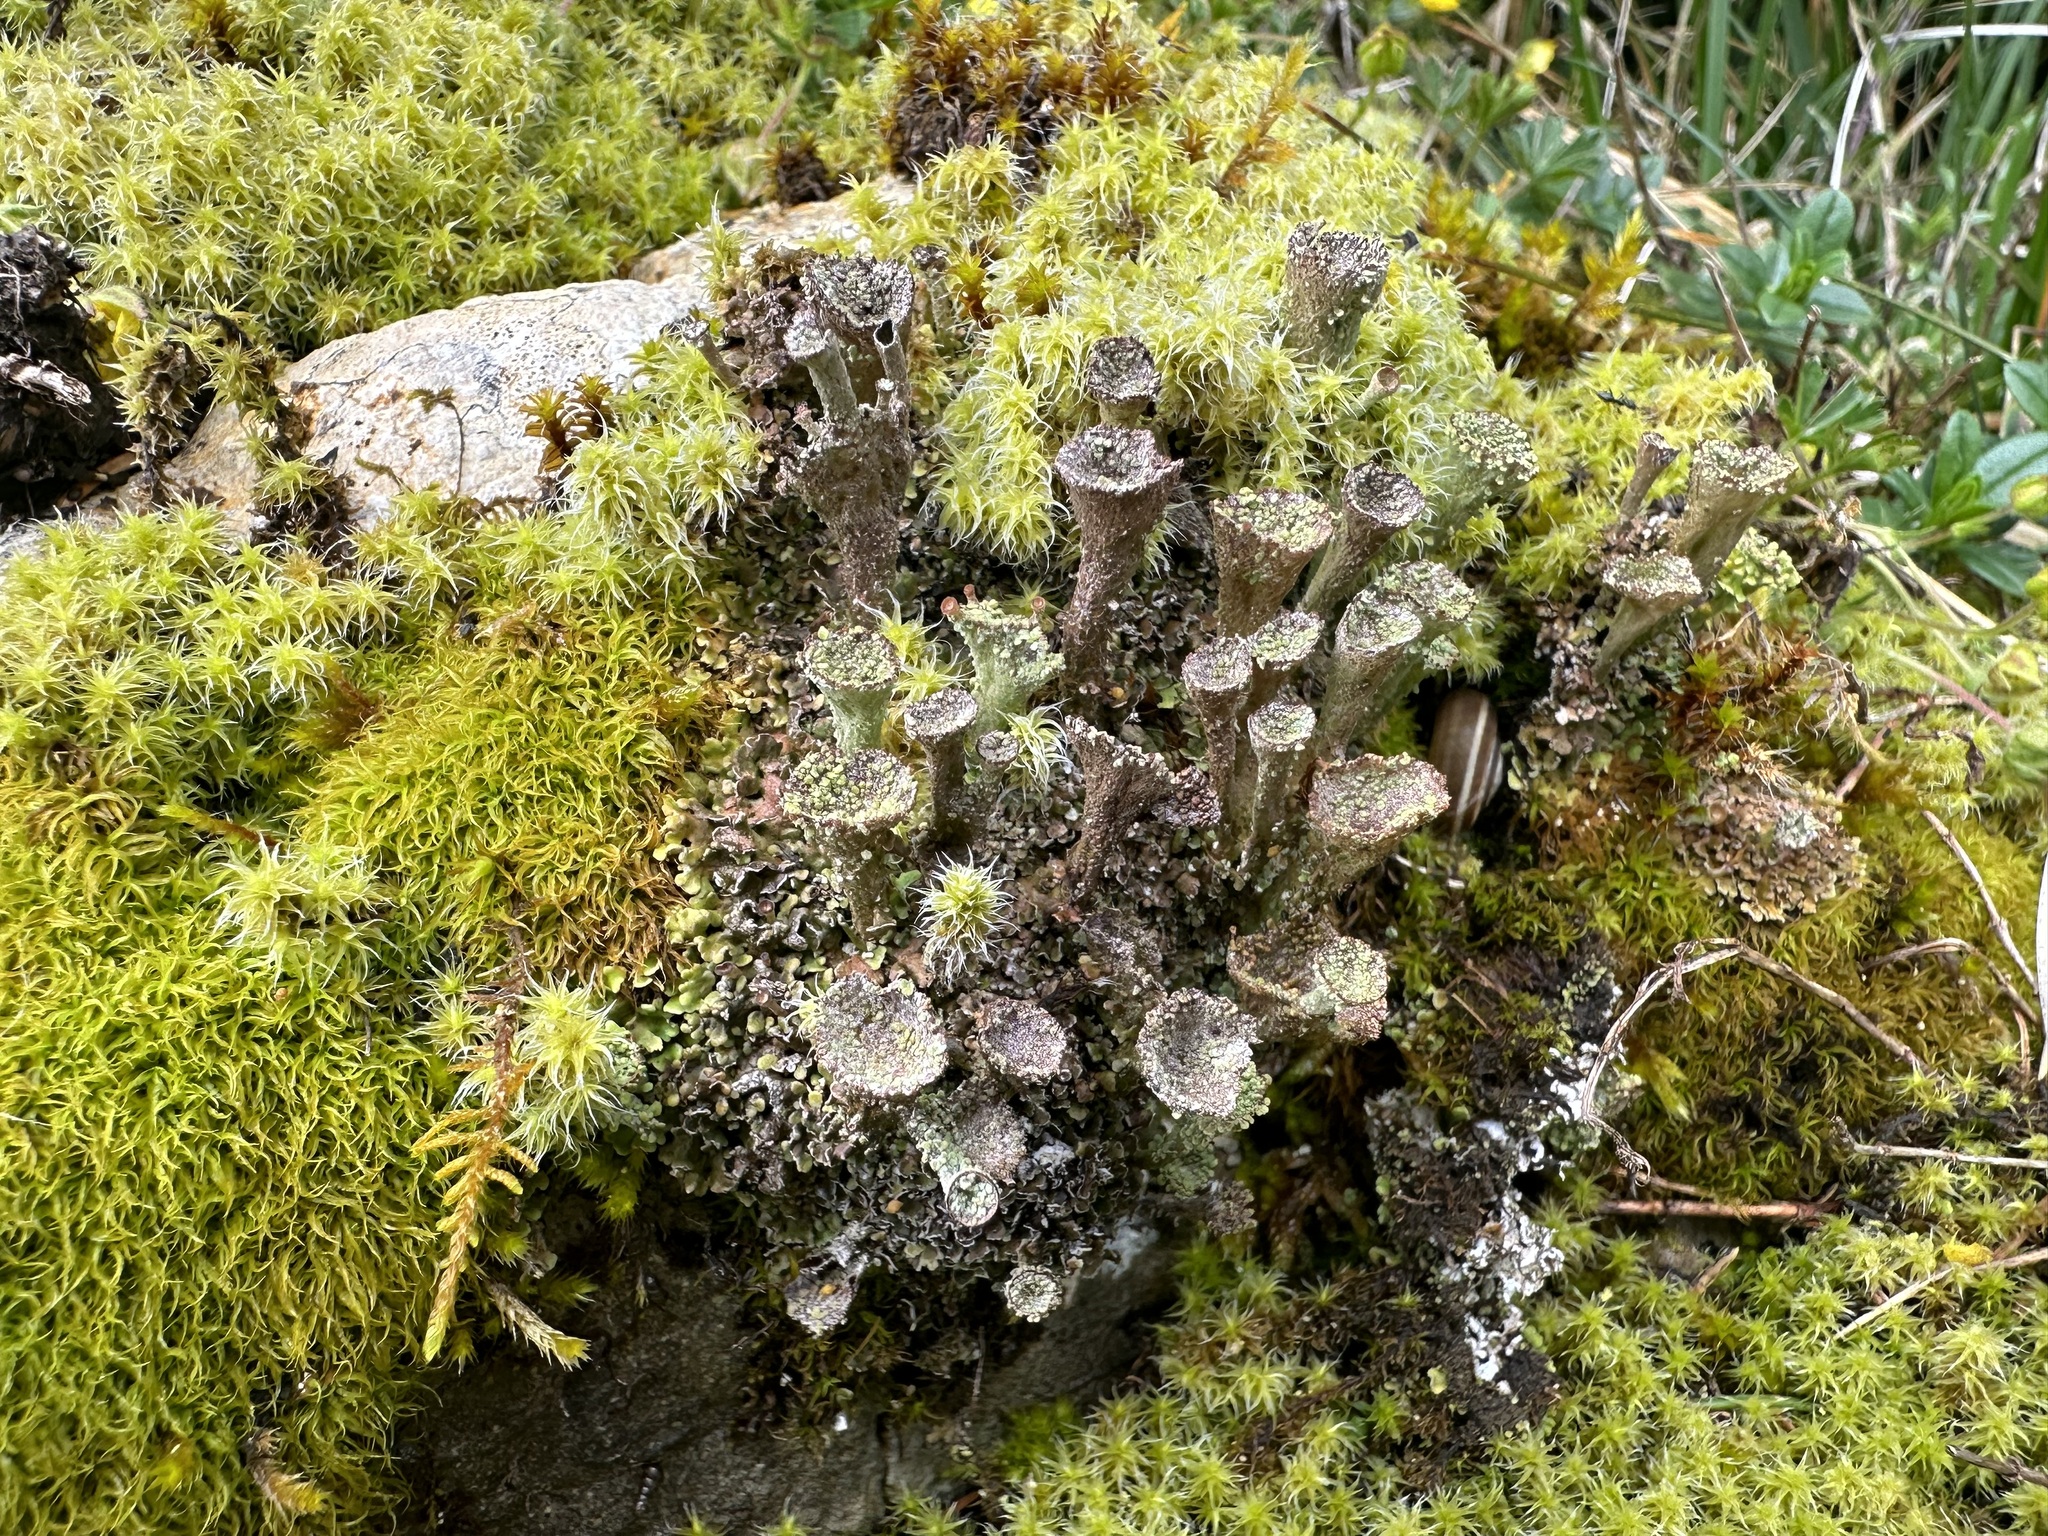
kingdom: Fungi
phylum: Ascomycota
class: Lecanoromycetes
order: Lecanorales
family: Cladoniaceae
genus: Cladonia
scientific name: Cladonia pocillum
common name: Rosette pixie-cup lichen
